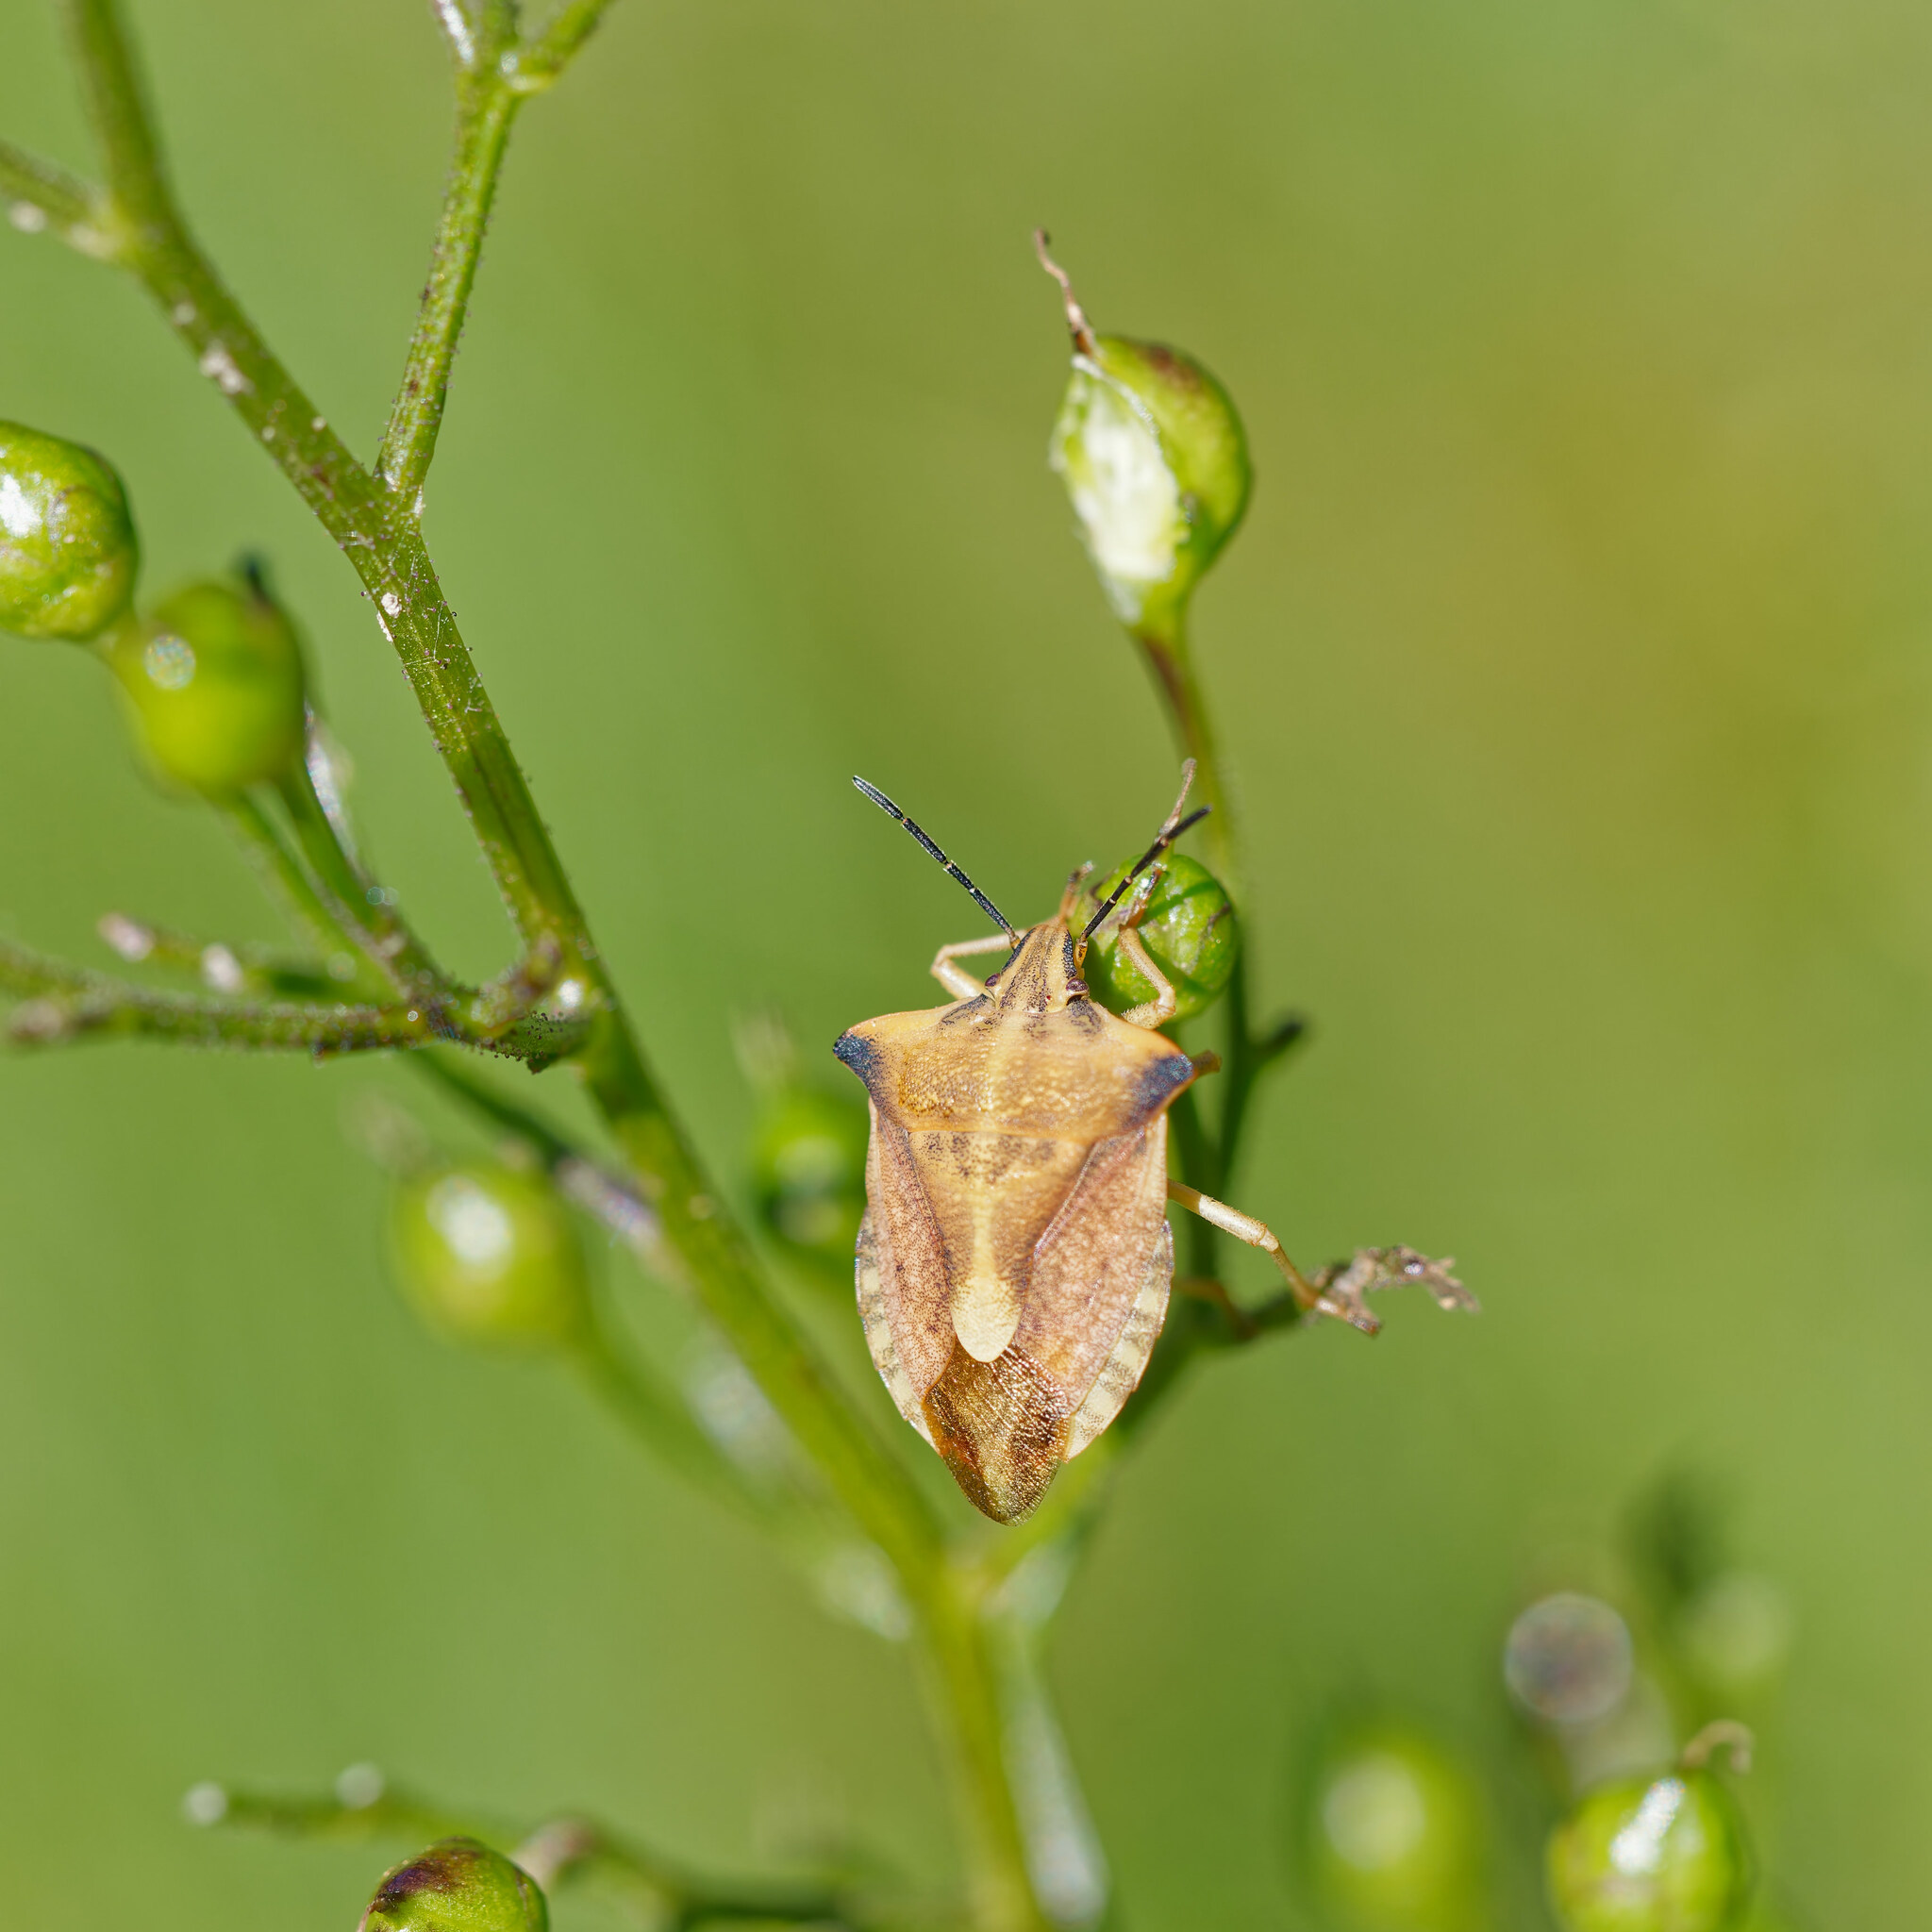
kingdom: Animalia
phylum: Arthropoda
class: Insecta
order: Hemiptera
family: Pentatomidae
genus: Carpocoris
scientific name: Carpocoris fuscispinus
